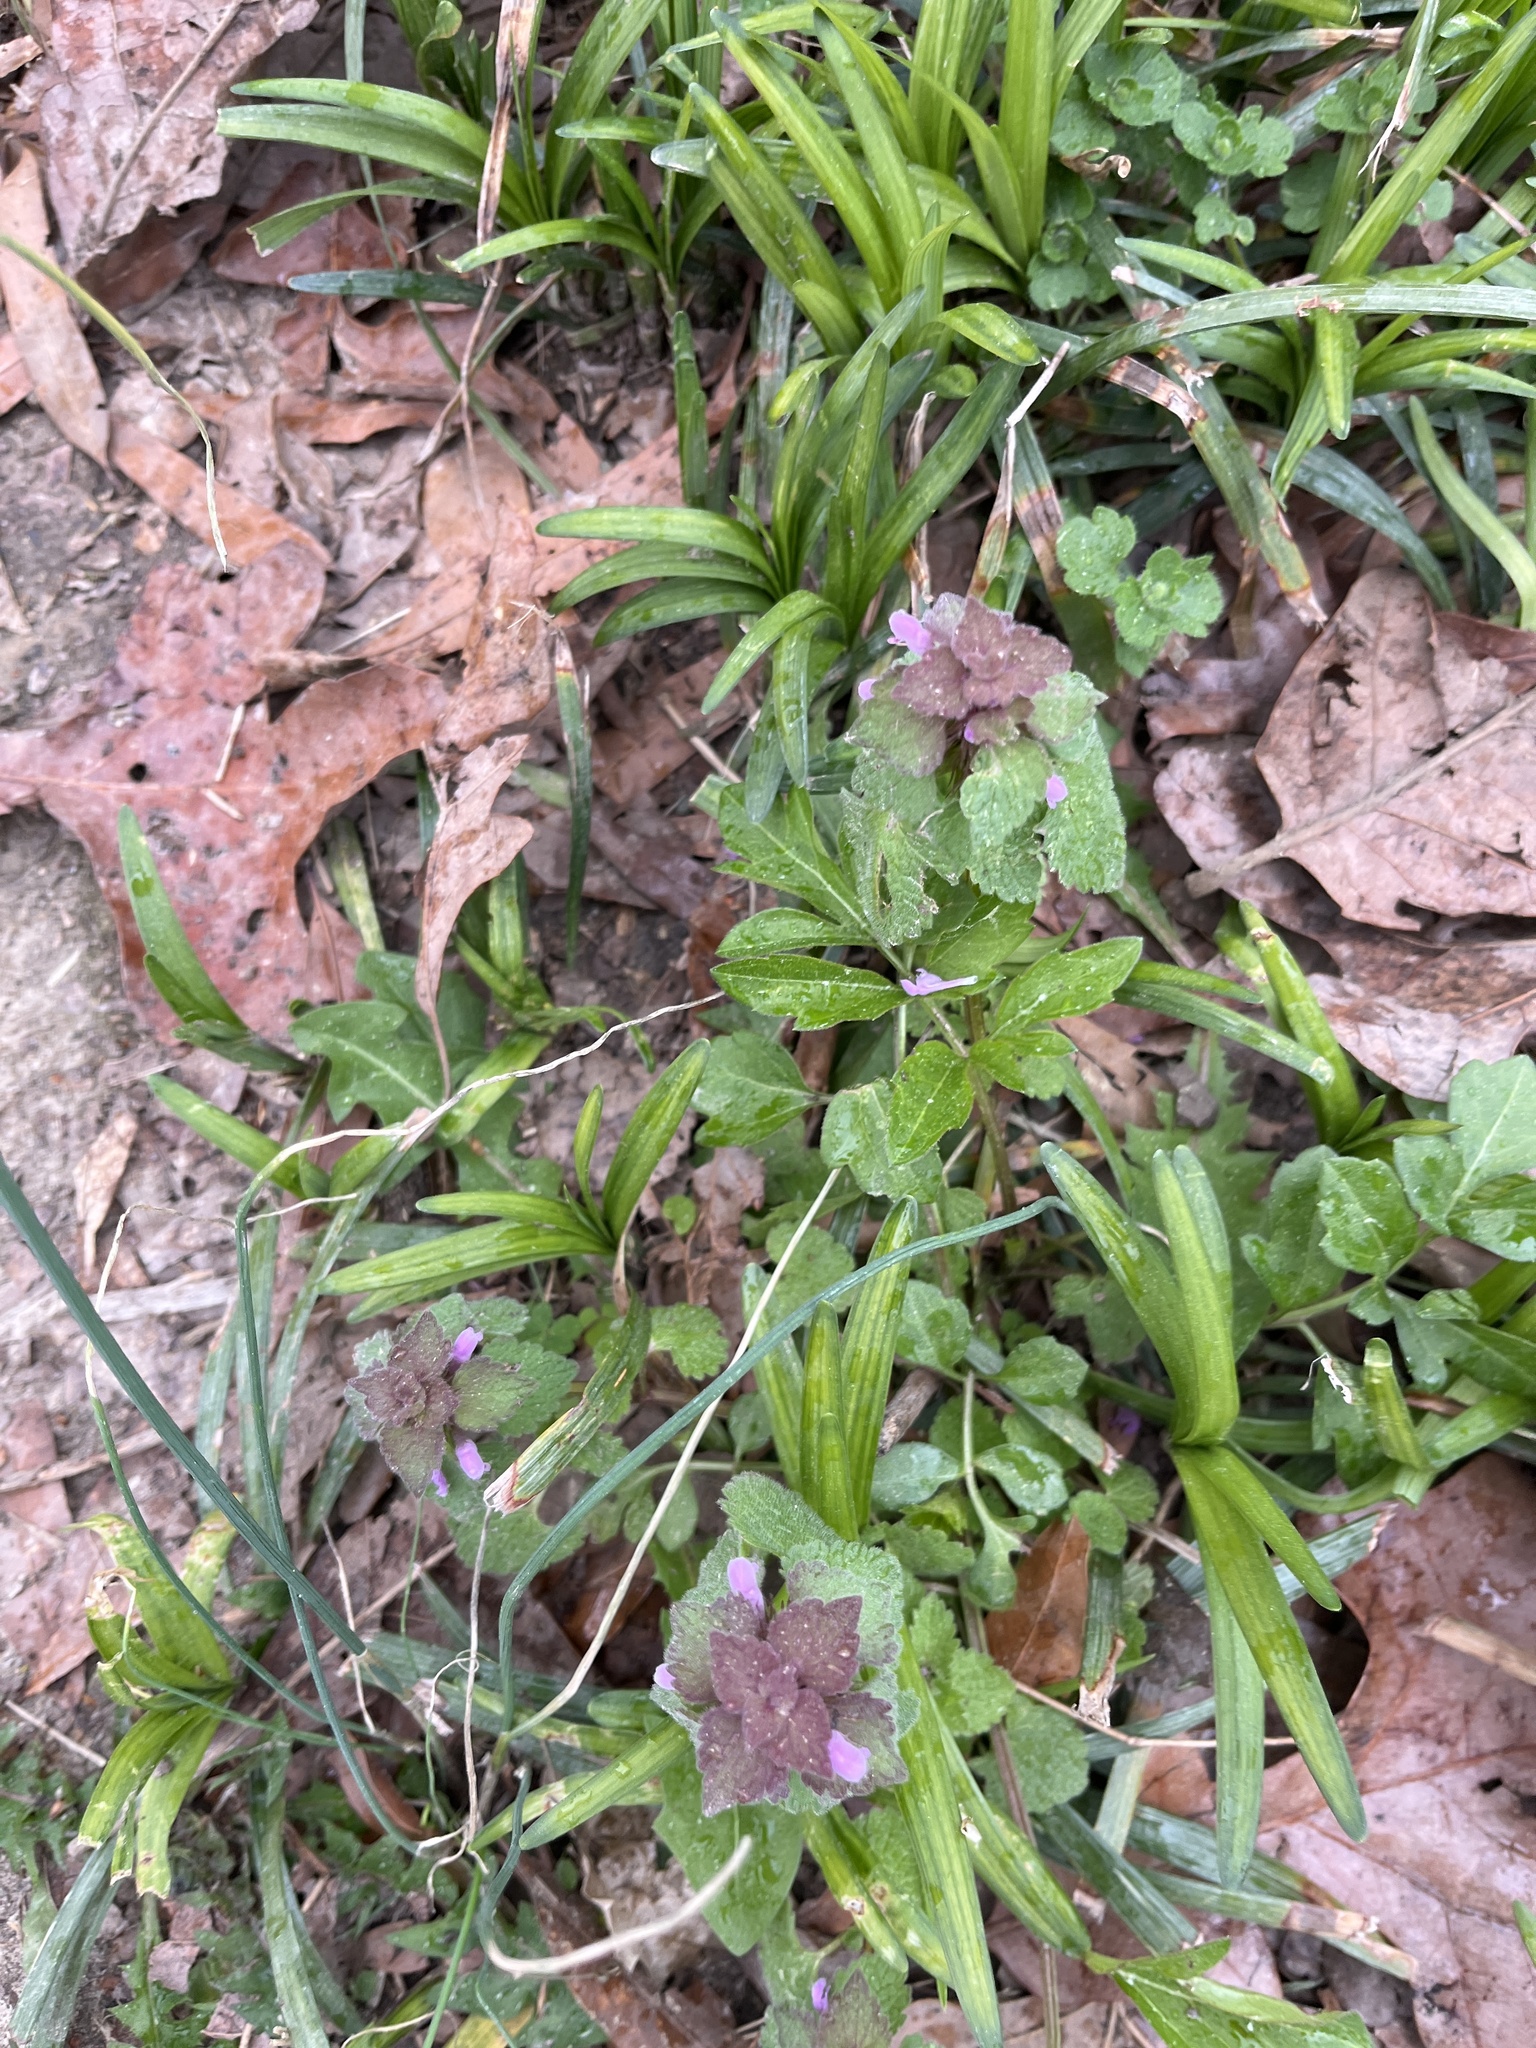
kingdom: Plantae
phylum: Tracheophyta
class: Magnoliopsida
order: Lamiales
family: Lamiaceae
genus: Lamium
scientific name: Lamium purpureum
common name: Red dead-nettle
